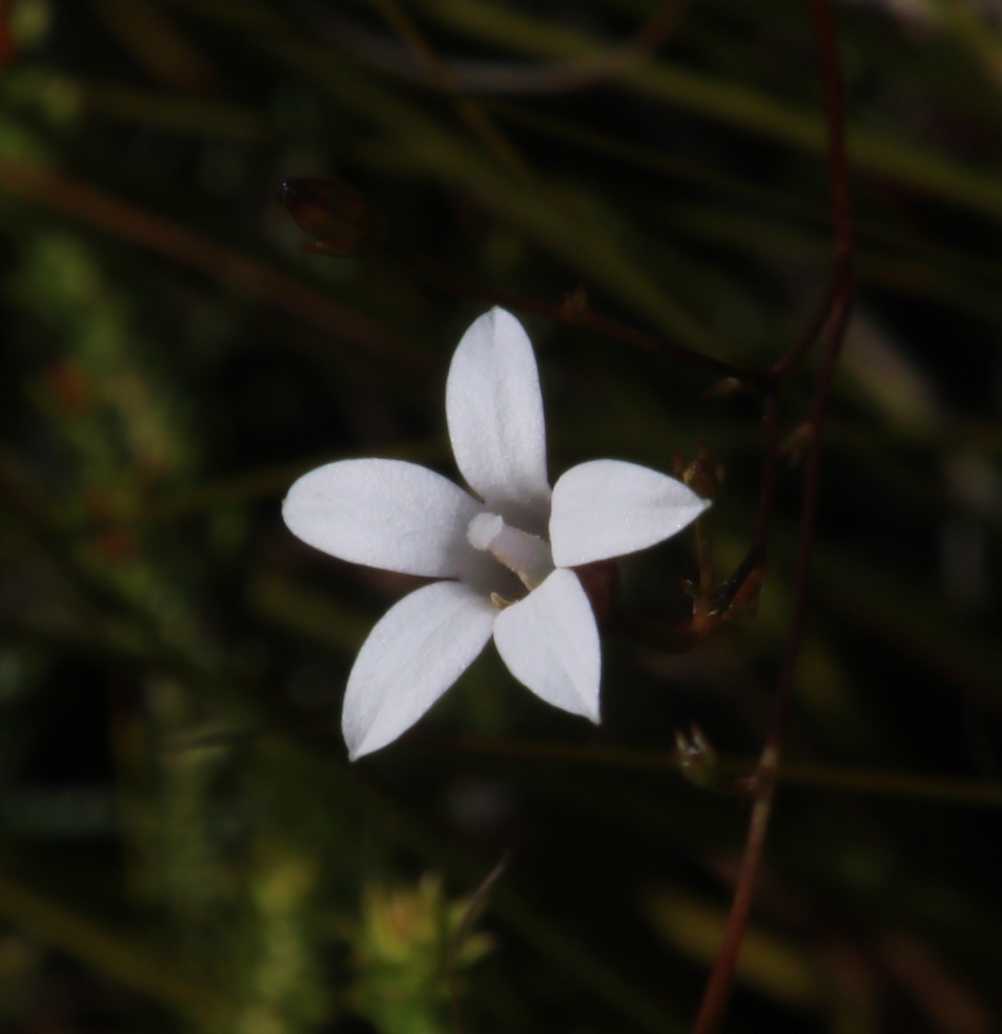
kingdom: Plantae
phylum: Tracheophyta
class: Magnoliopsida
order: Asterales
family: Campanulaceae
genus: Prismatocarpus
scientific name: Prismatocarpus fruticosus
